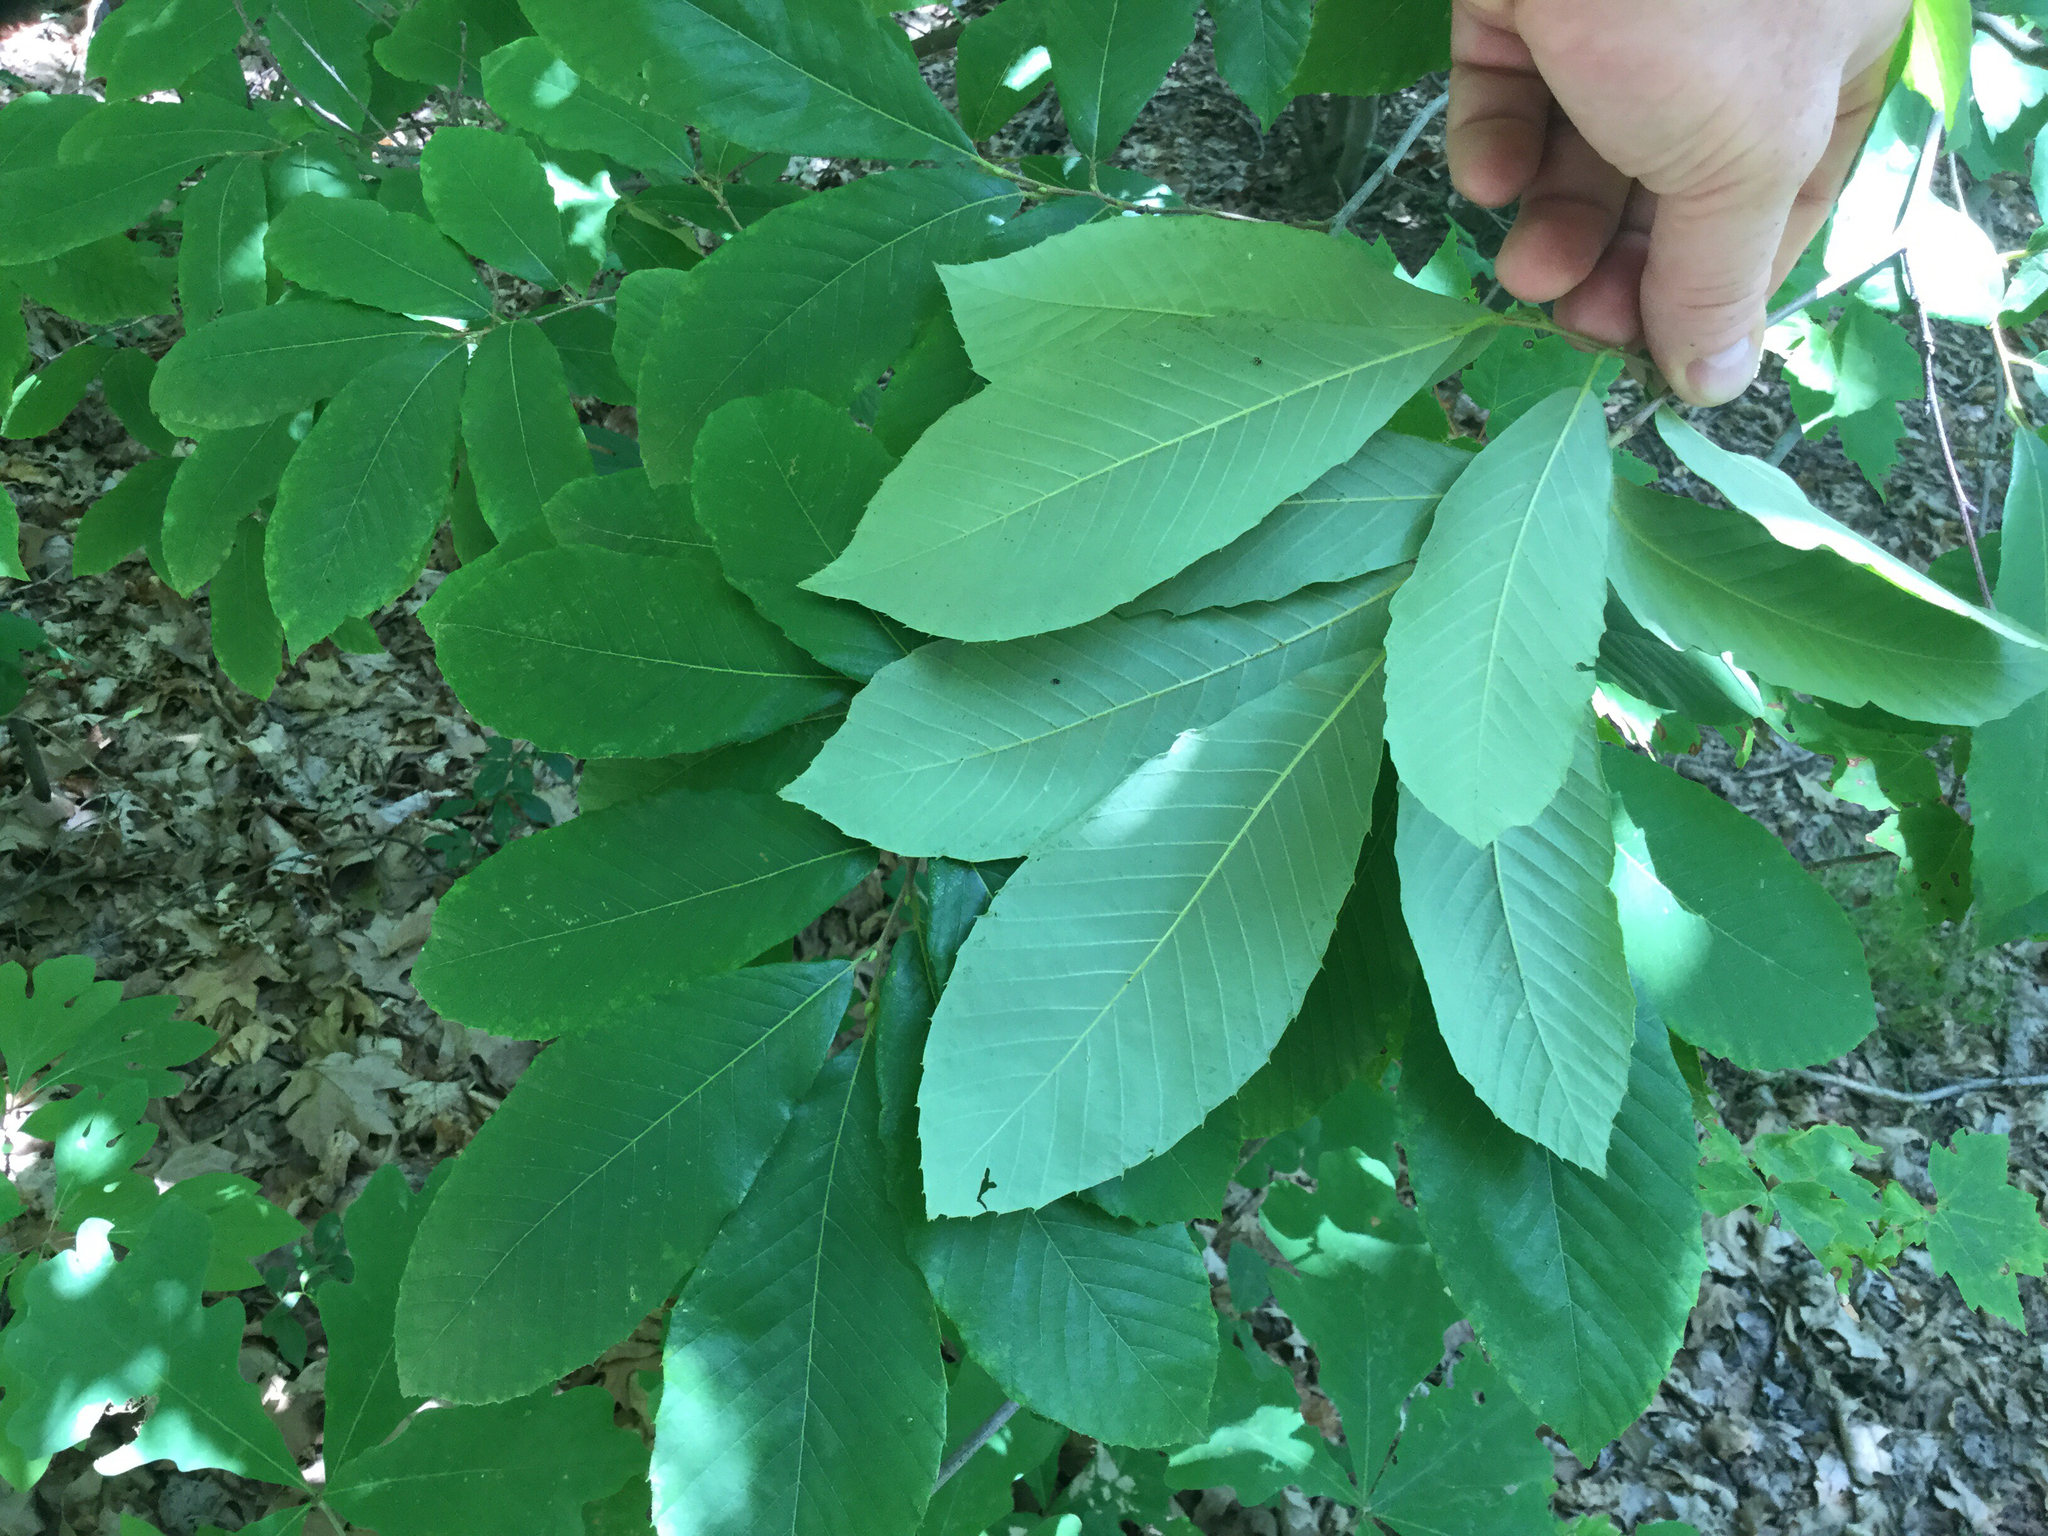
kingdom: Plantae
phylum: Tracheophyta
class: Magnoliopsida
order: Fagales
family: Fagaceae
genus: Castanea
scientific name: Castanea pumila
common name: Chinkapin
